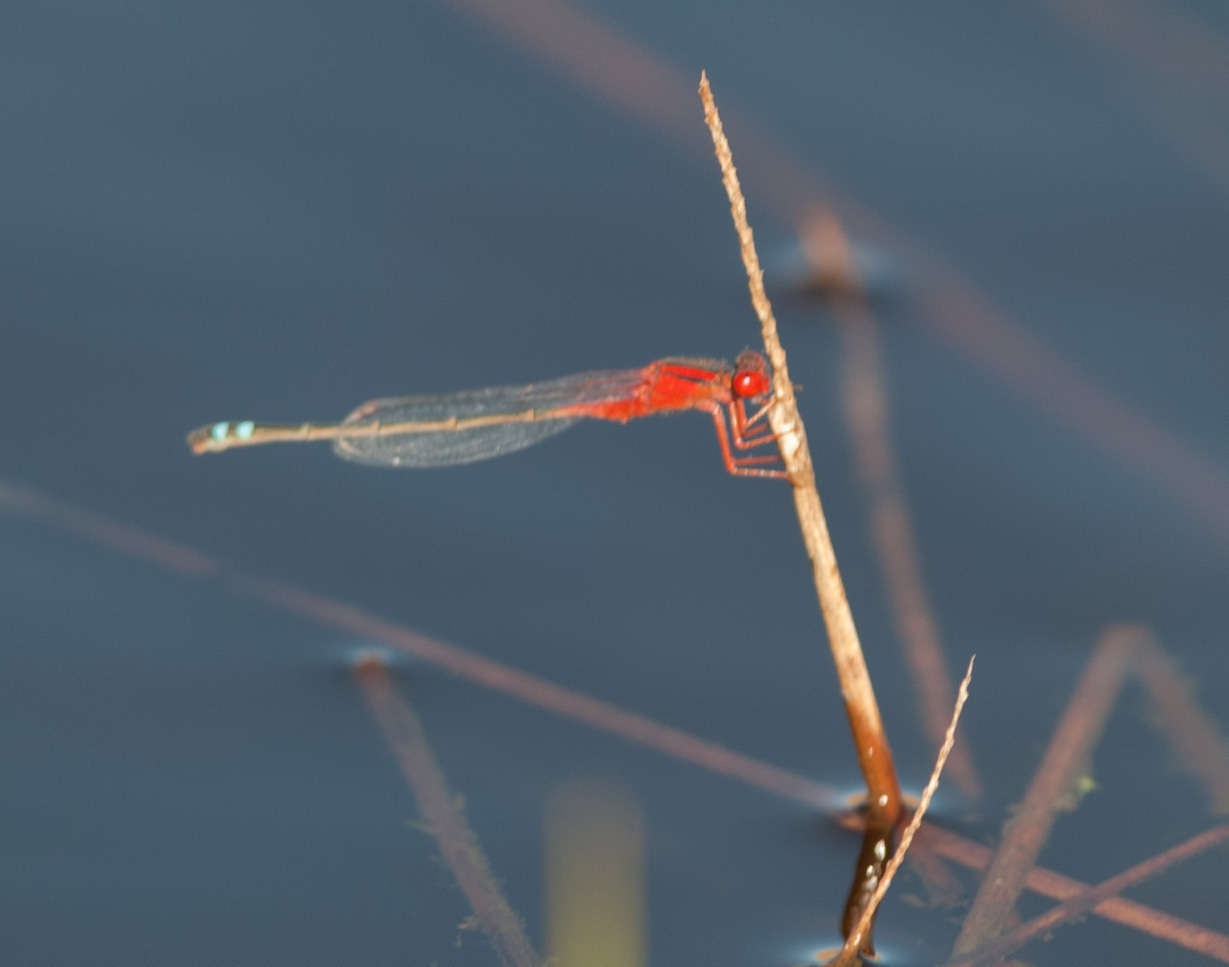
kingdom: Animalia
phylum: Arthropoda
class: Insecta
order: Odonata
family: Coenagrionidae
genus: Xanthagrion
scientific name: Xanthagrion erythroneurum
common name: Red and blue damsel
